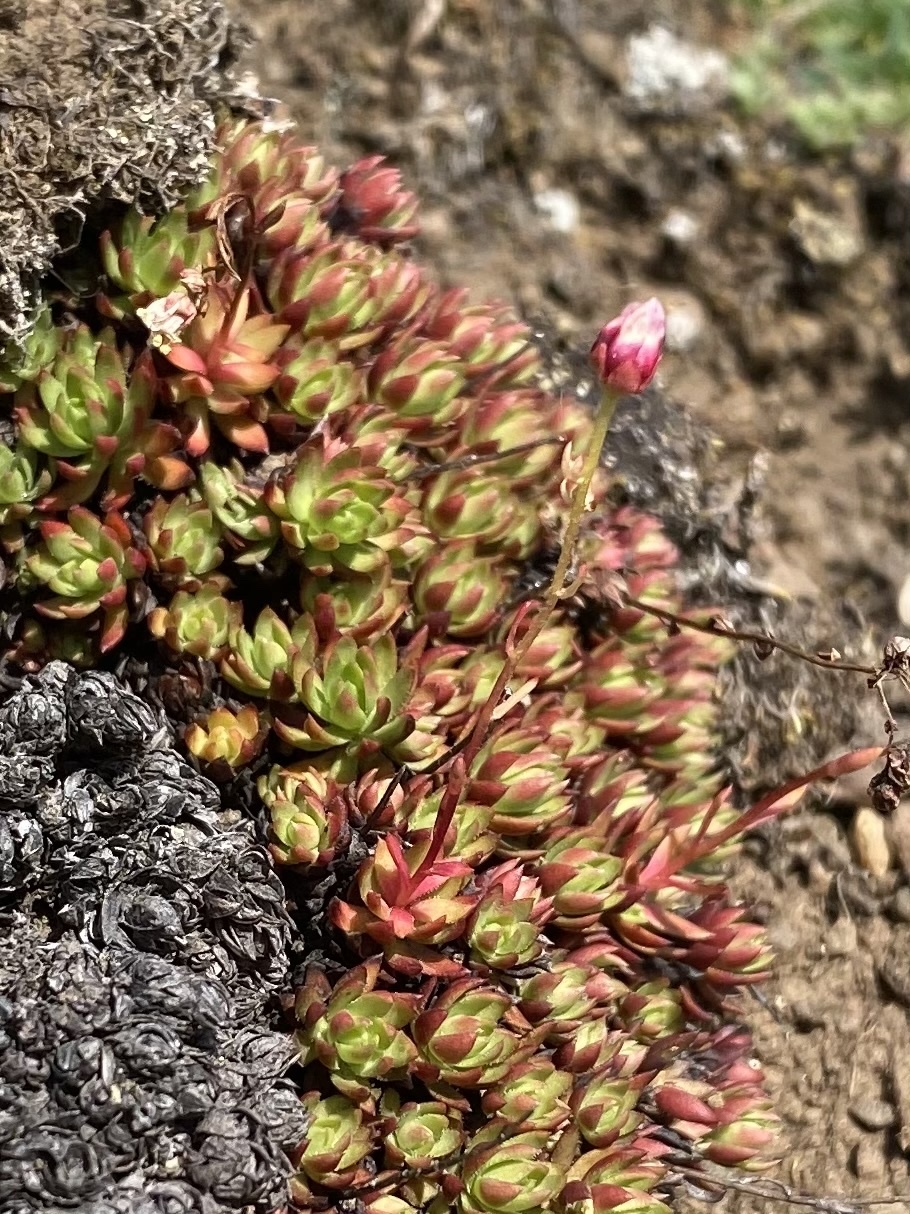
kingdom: Plantae
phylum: Tracheophyta
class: Magnoliopsida
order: Saxifragales
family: Saxifragaceae
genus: Saxifraga
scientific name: Saxifraga
